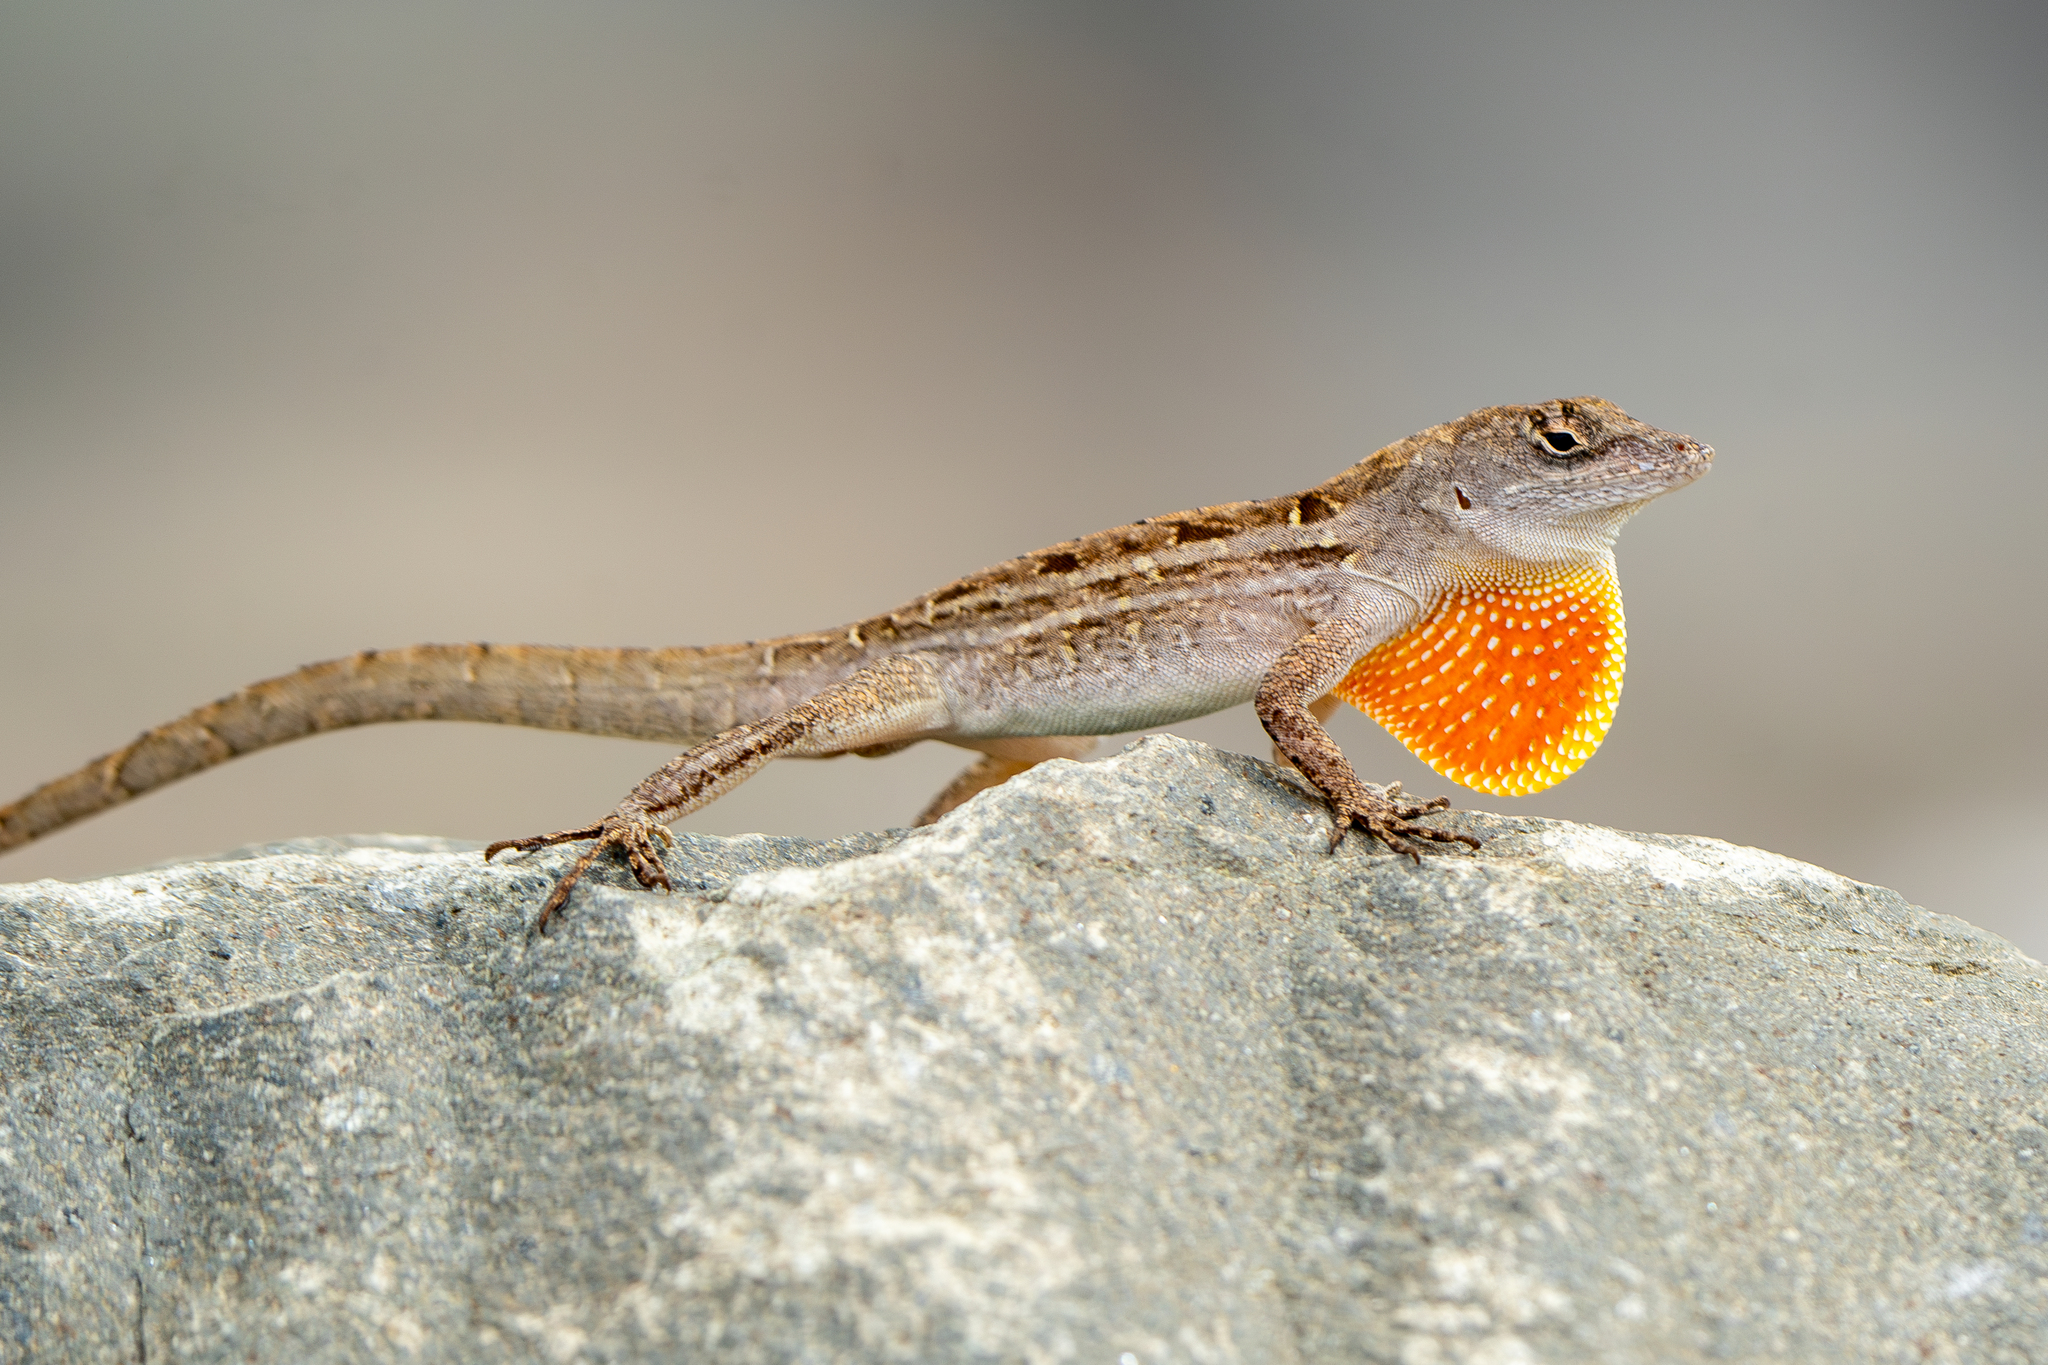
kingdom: Animalia
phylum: Chordata
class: Squamata
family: Dactyloidae
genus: Anolis
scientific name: Anolis sagrei
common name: Brown anole
